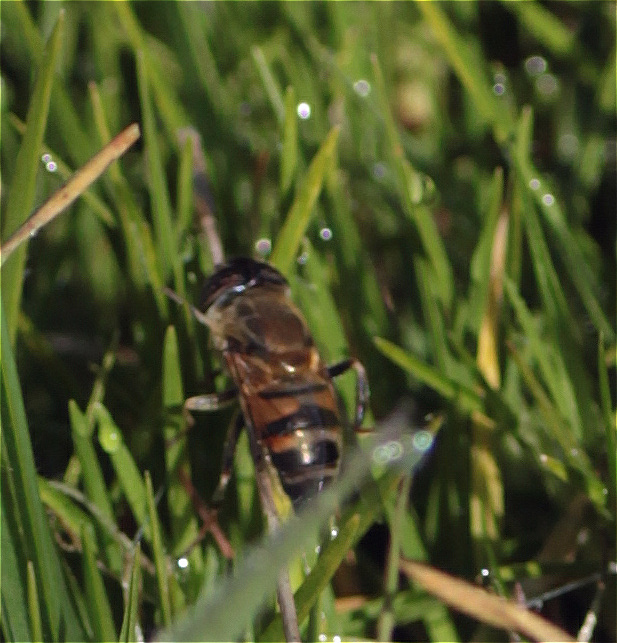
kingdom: Animalia
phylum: Arthropoda
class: Insecta
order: Diptera
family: Syrphidae
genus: Eristalinus
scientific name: Eristalinus taeniops
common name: Syrphid fly
